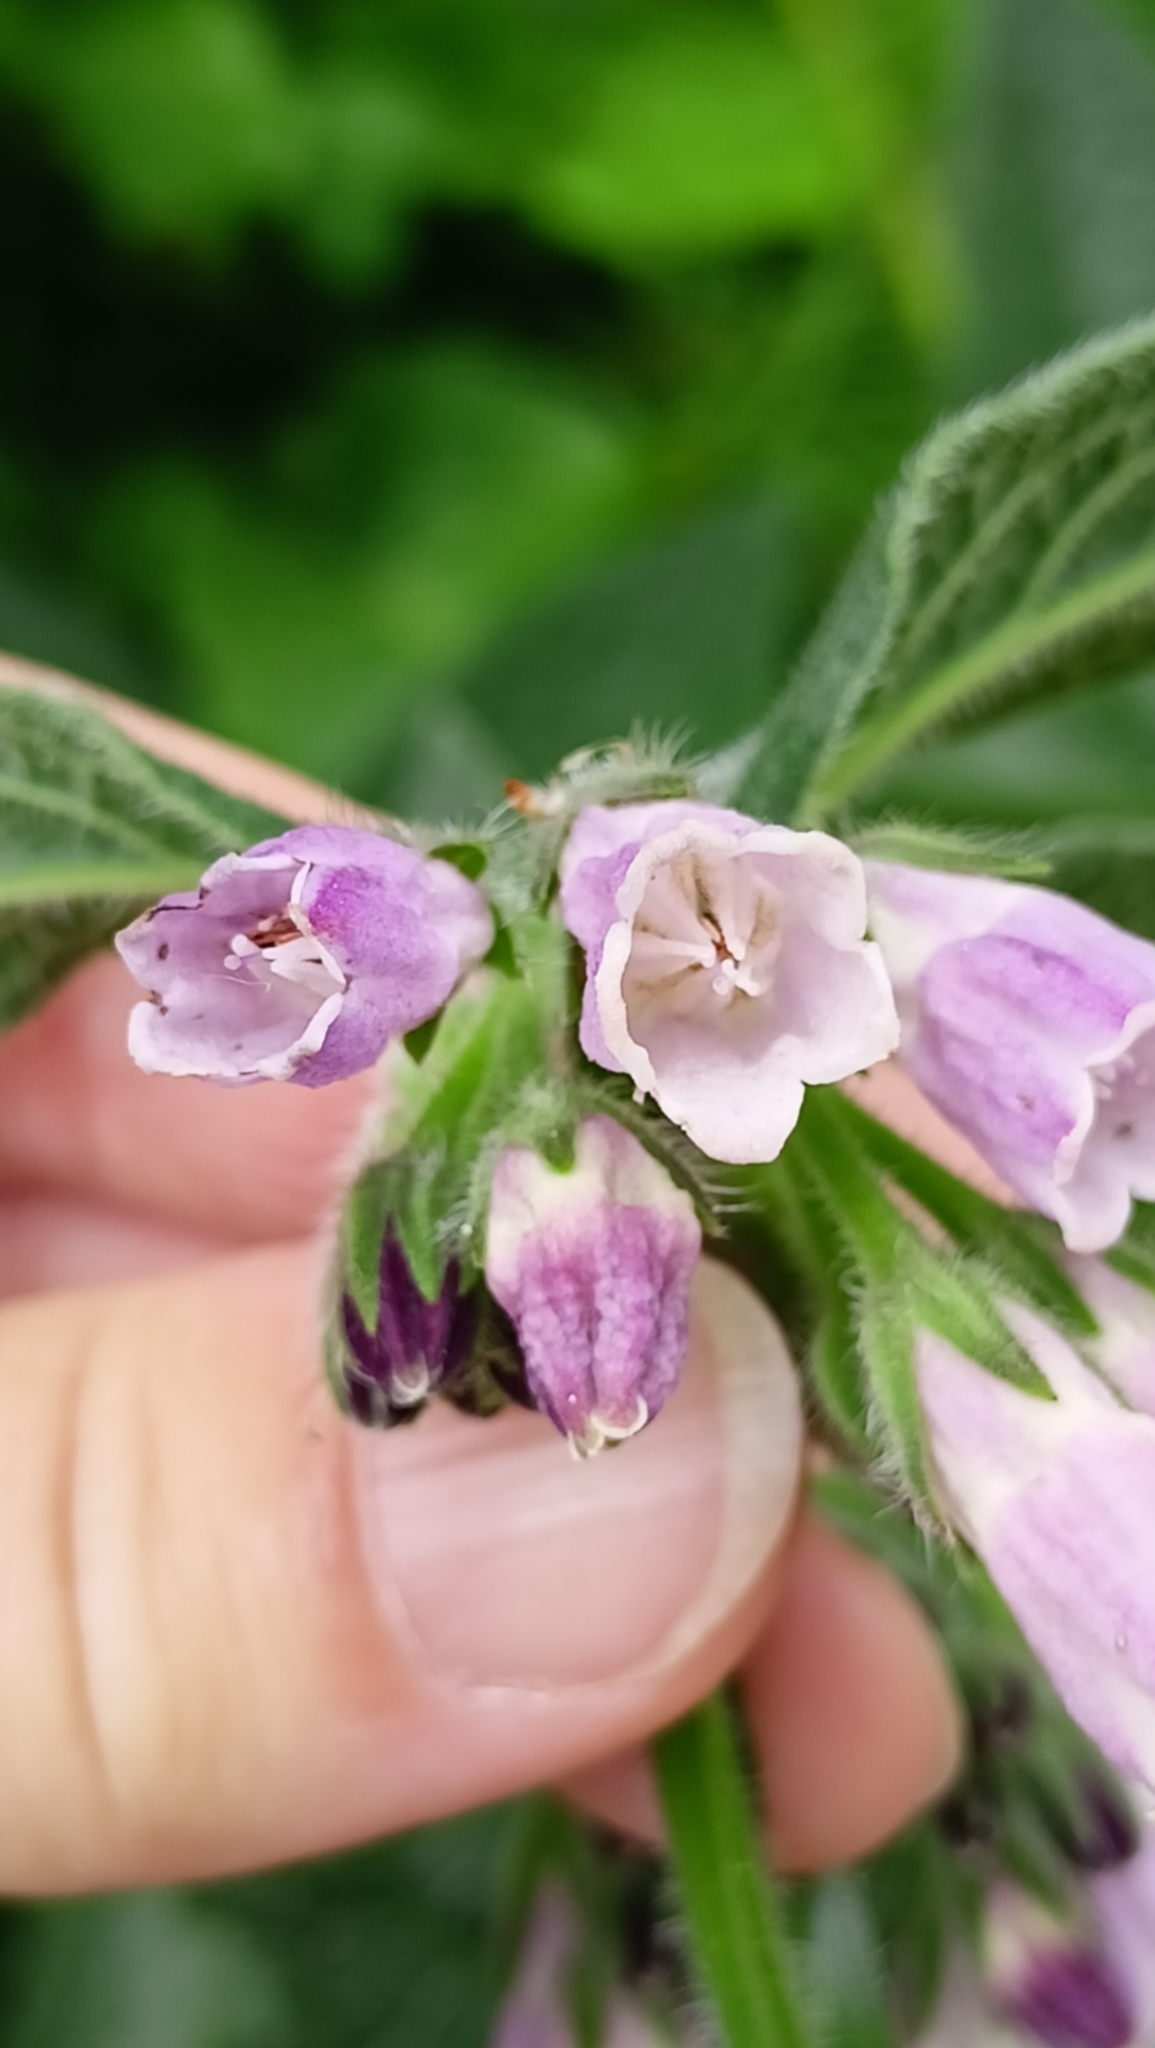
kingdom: Plantae
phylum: Tracheophyta
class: Magnoliopsida
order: Boraginales
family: Boraginaceae
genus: Symphytum
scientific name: Symphytum officinale
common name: Common comfrey
